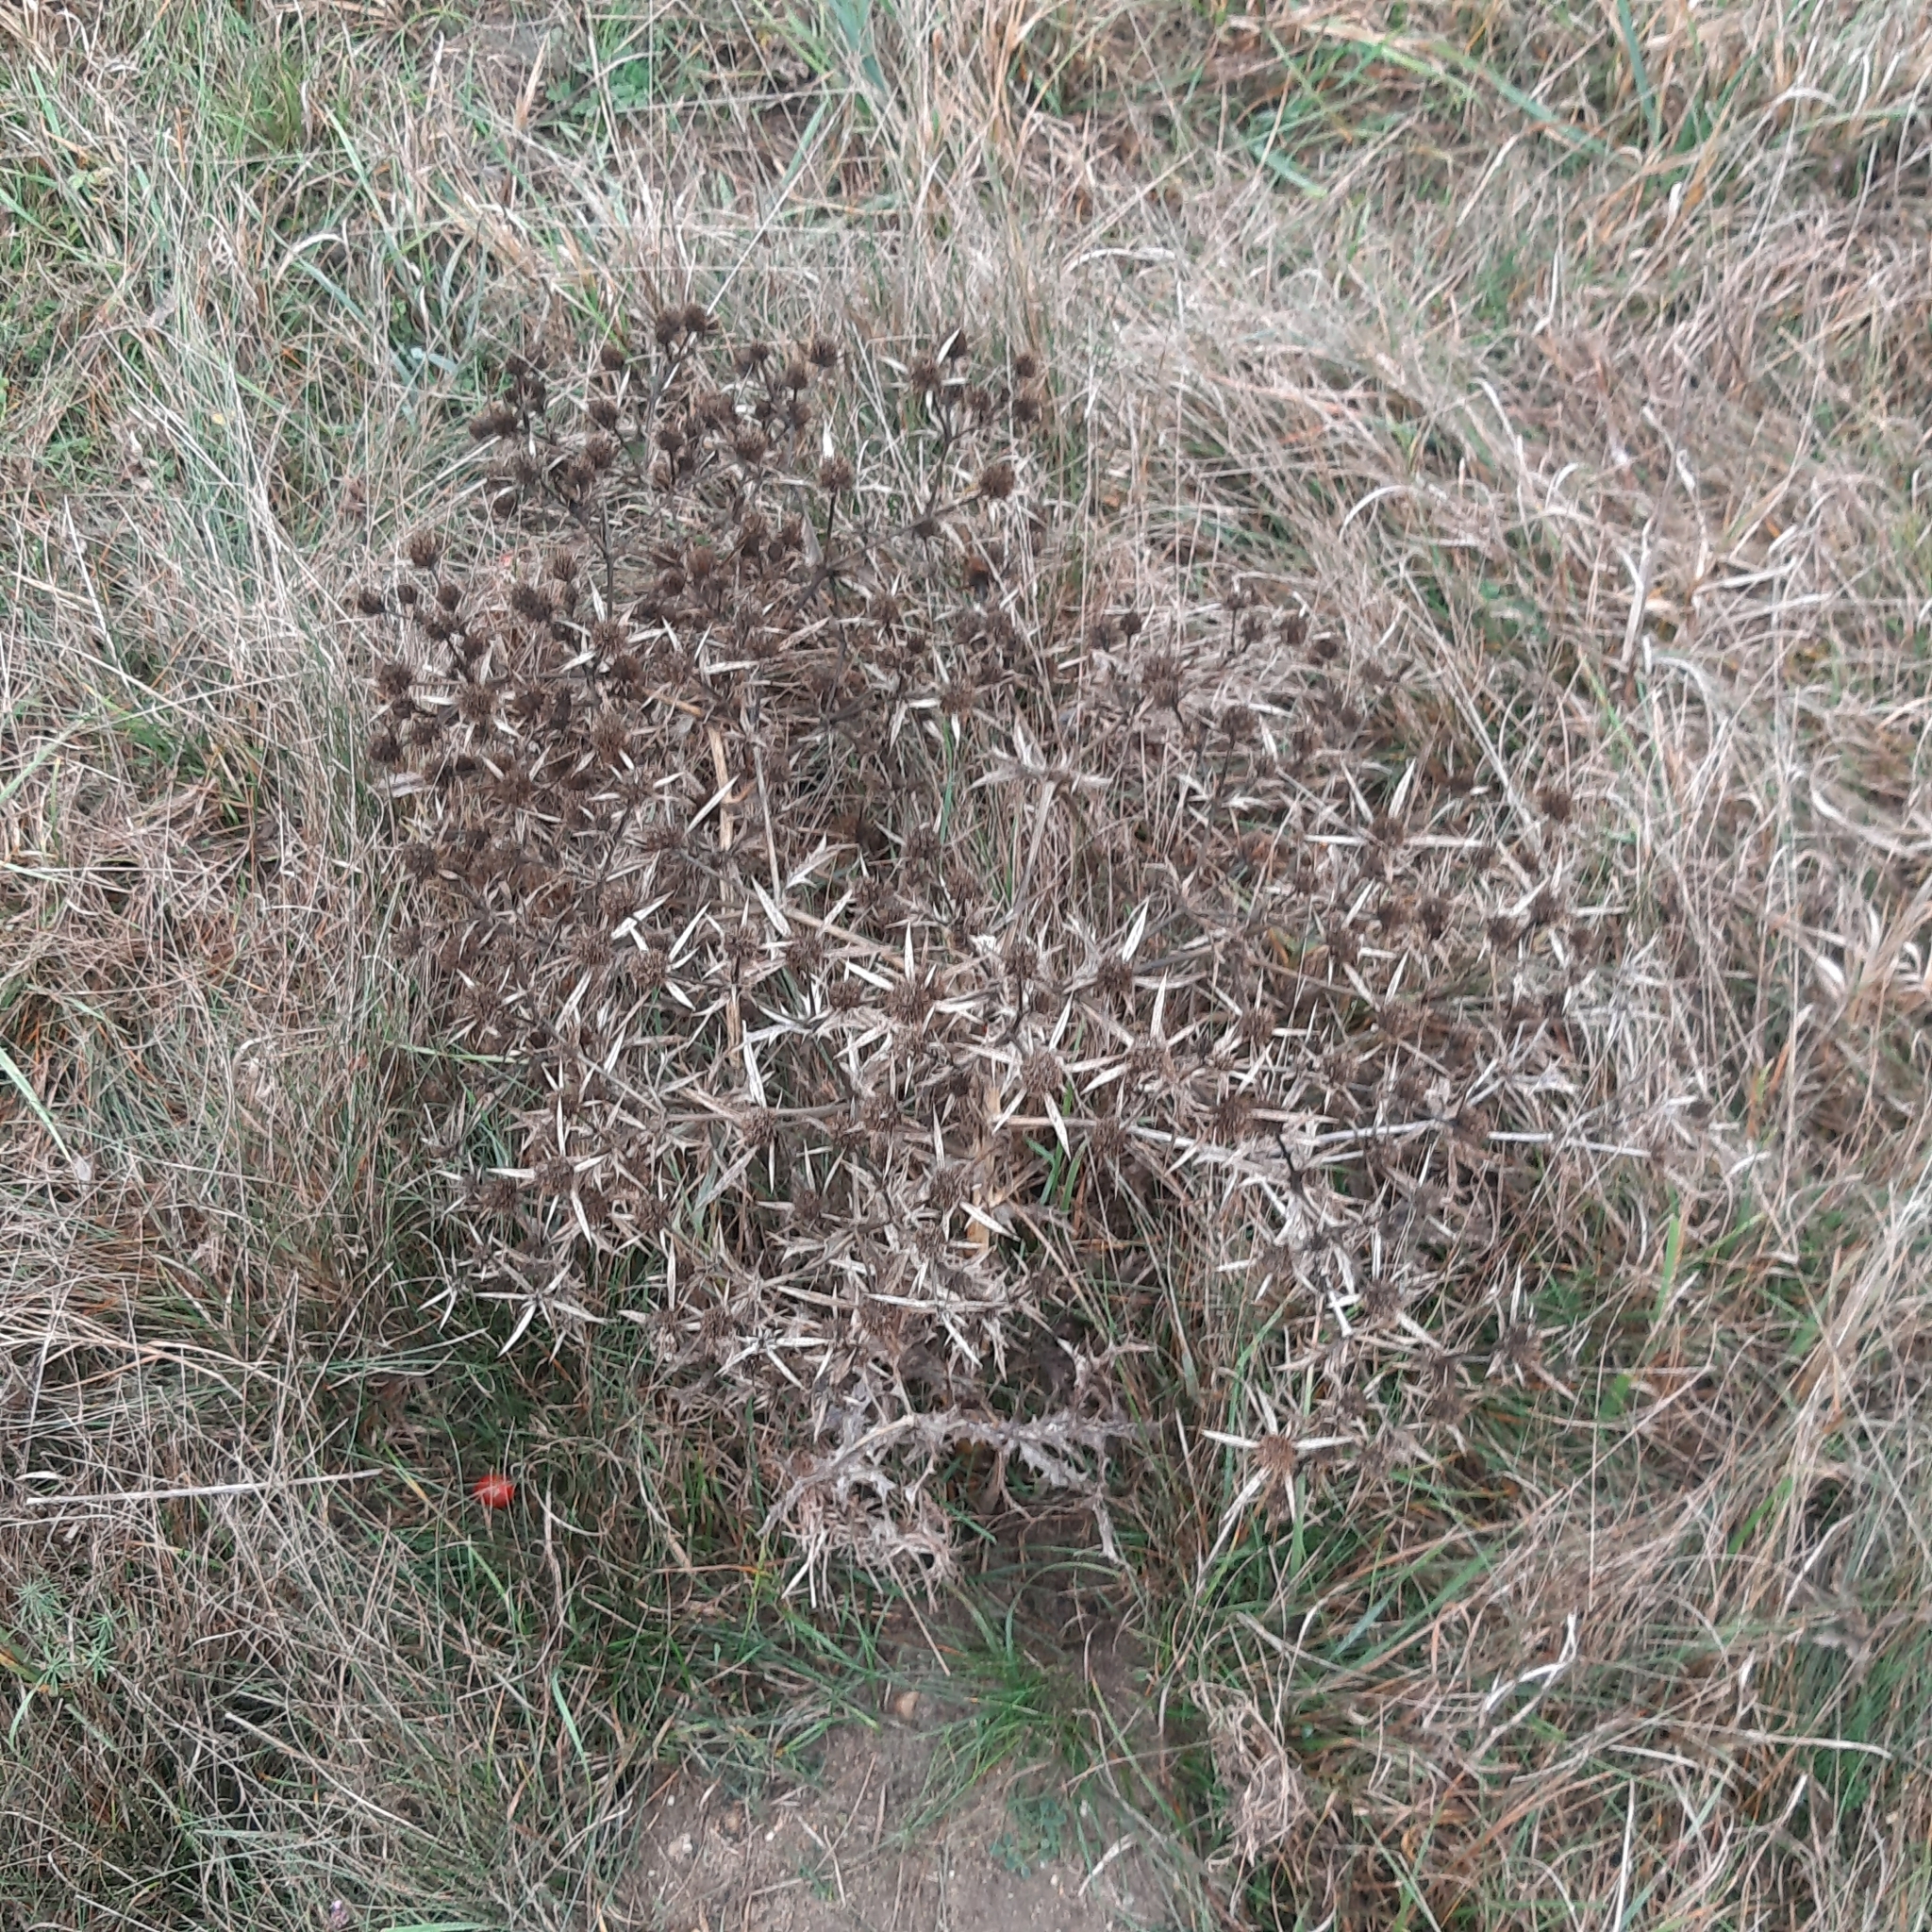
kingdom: Plantae
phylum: Tracheophyta
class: Magnoliopsida
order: Apiales
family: Apiaceae
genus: Eryngium
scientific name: Eryngium campestre
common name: Field eryngo
